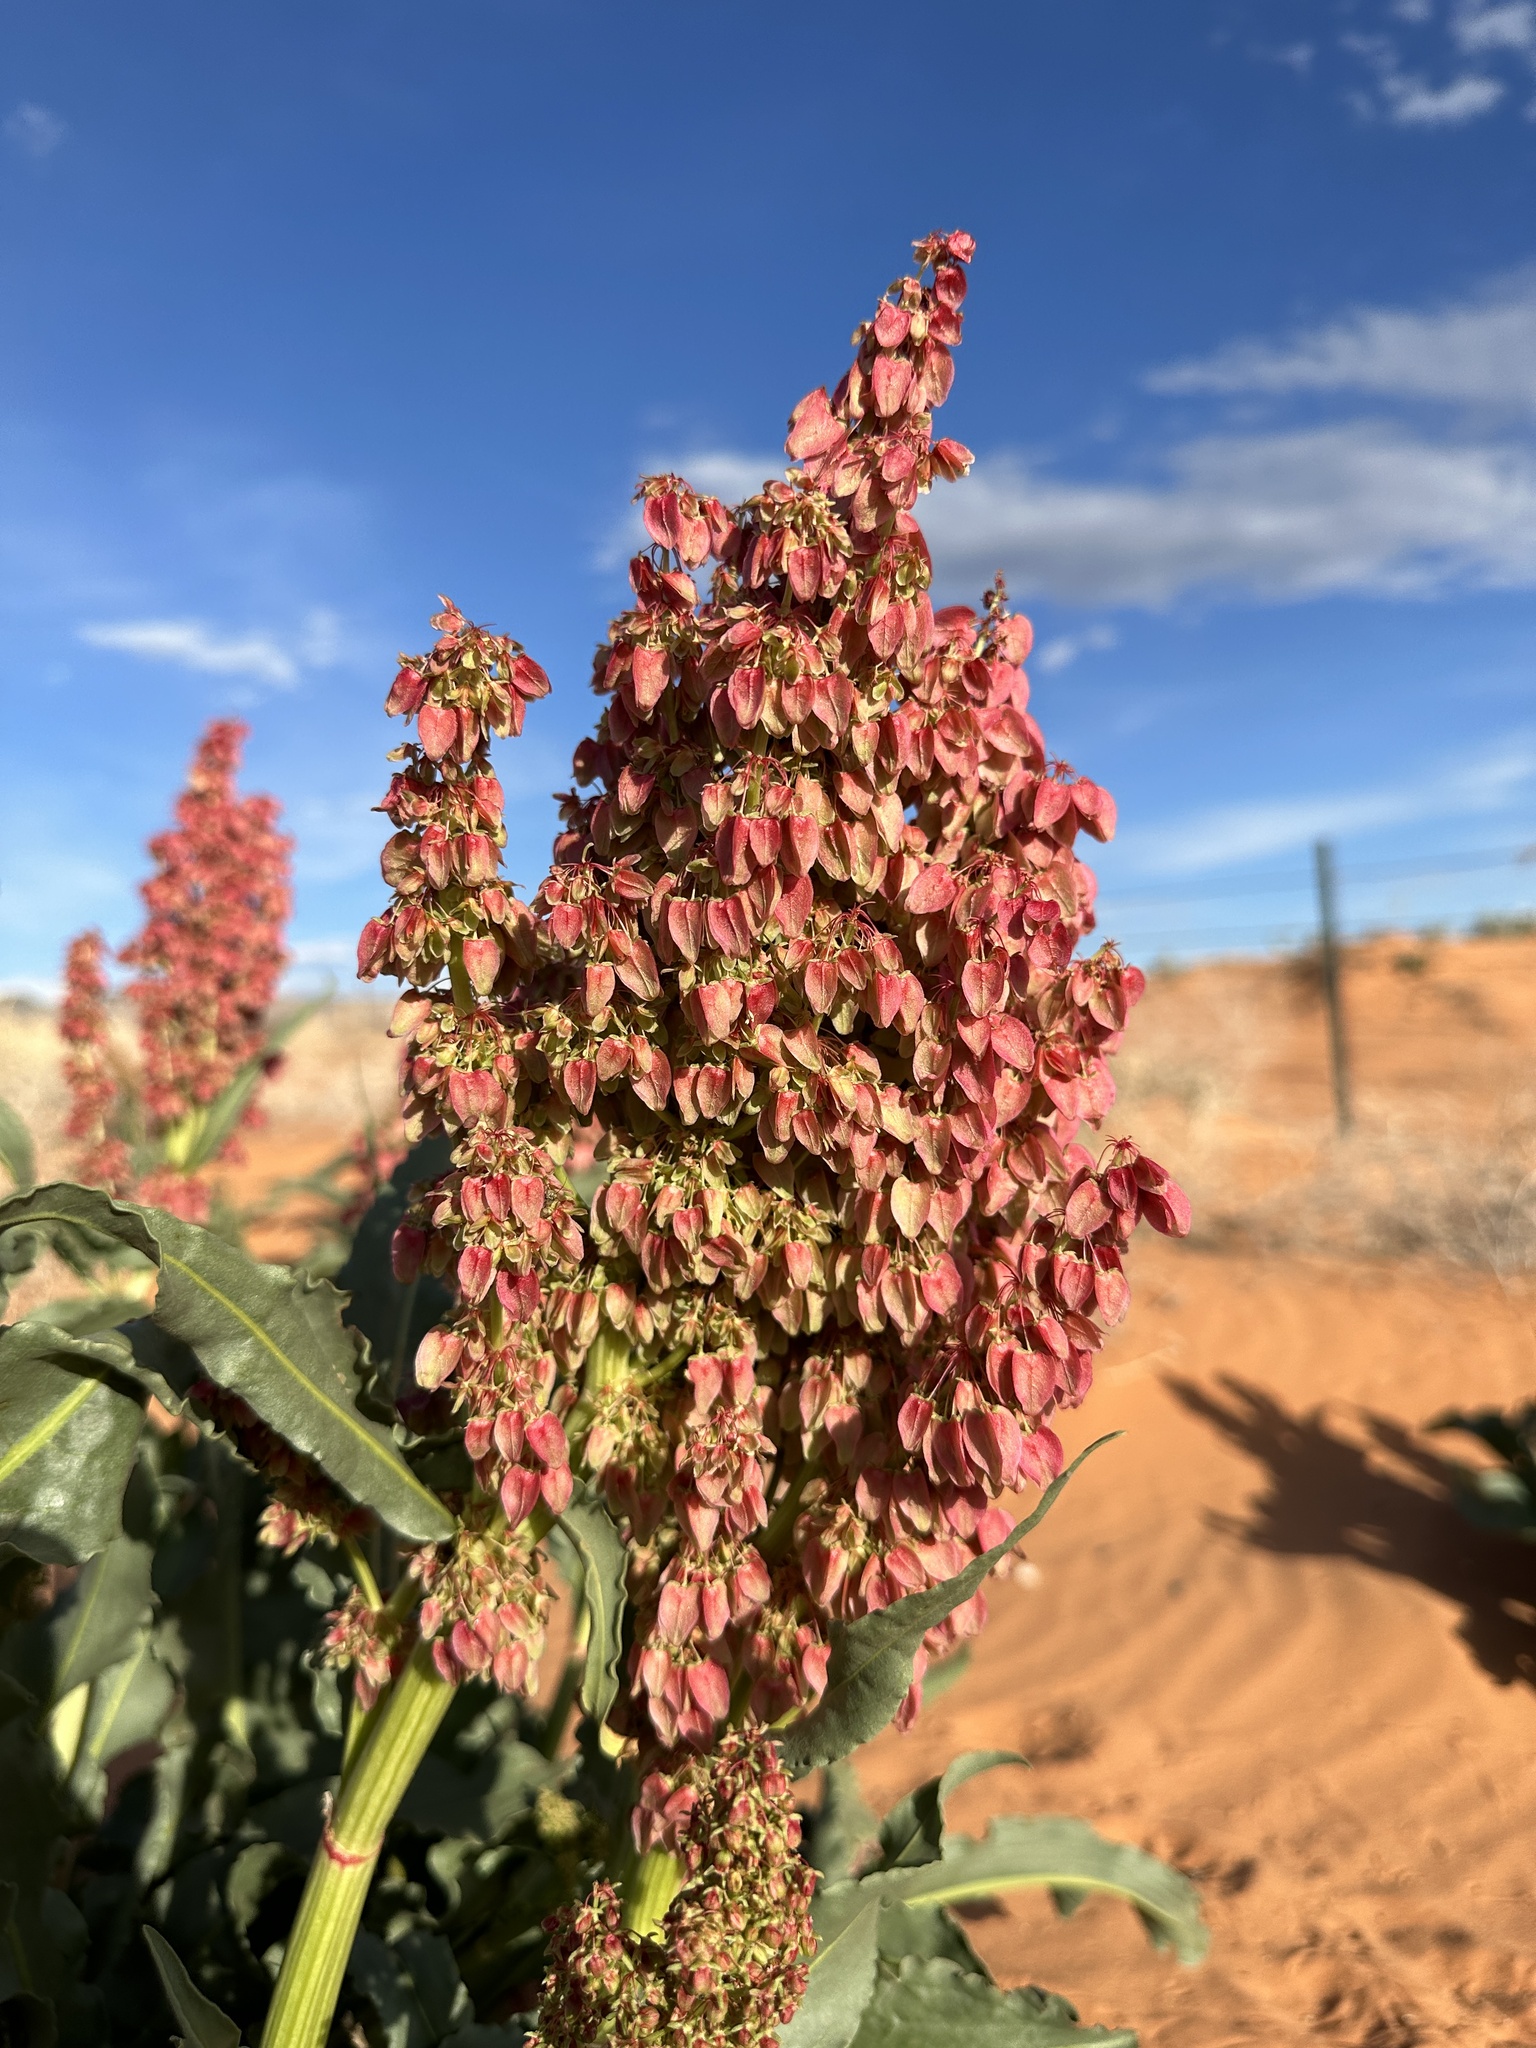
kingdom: Plantae
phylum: Tracheophyta
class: Magnoliopsida
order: Caryophyllales
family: Polygonaceae
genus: Rumex
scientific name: Rumex hymenosepalus
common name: Ganagra
